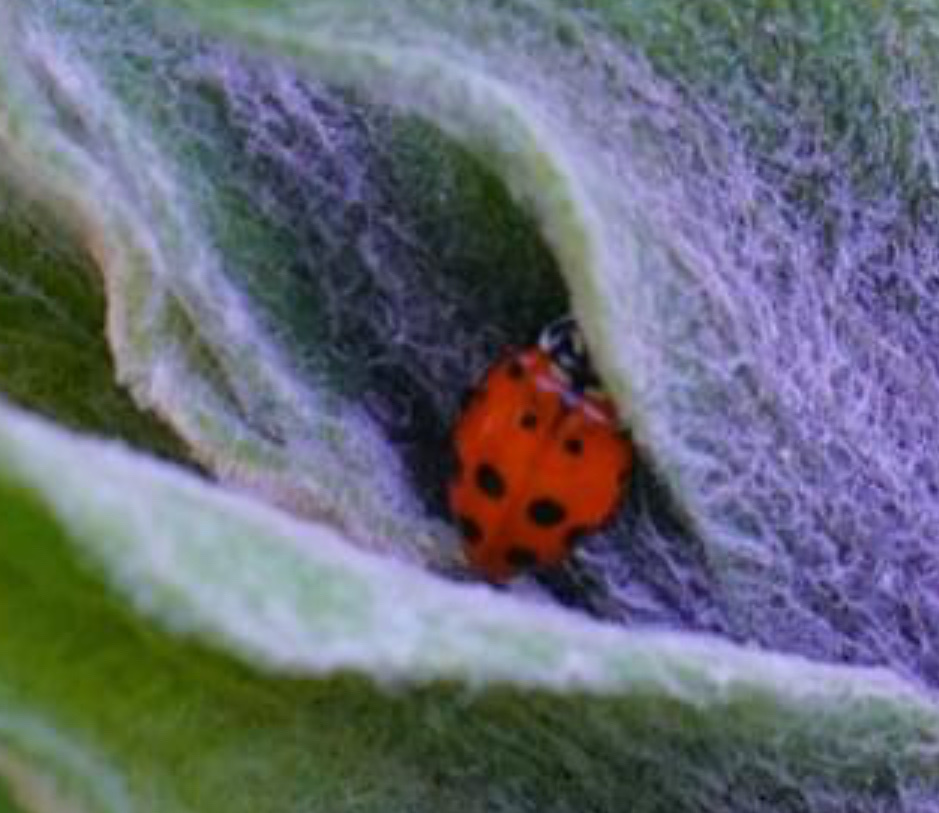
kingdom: Animalia
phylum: Arthropoda
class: Insecta
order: Coleoptera
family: Coccinellidae
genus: Hippodamia
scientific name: Hippodamia convergens
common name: Convergent lady beetle
